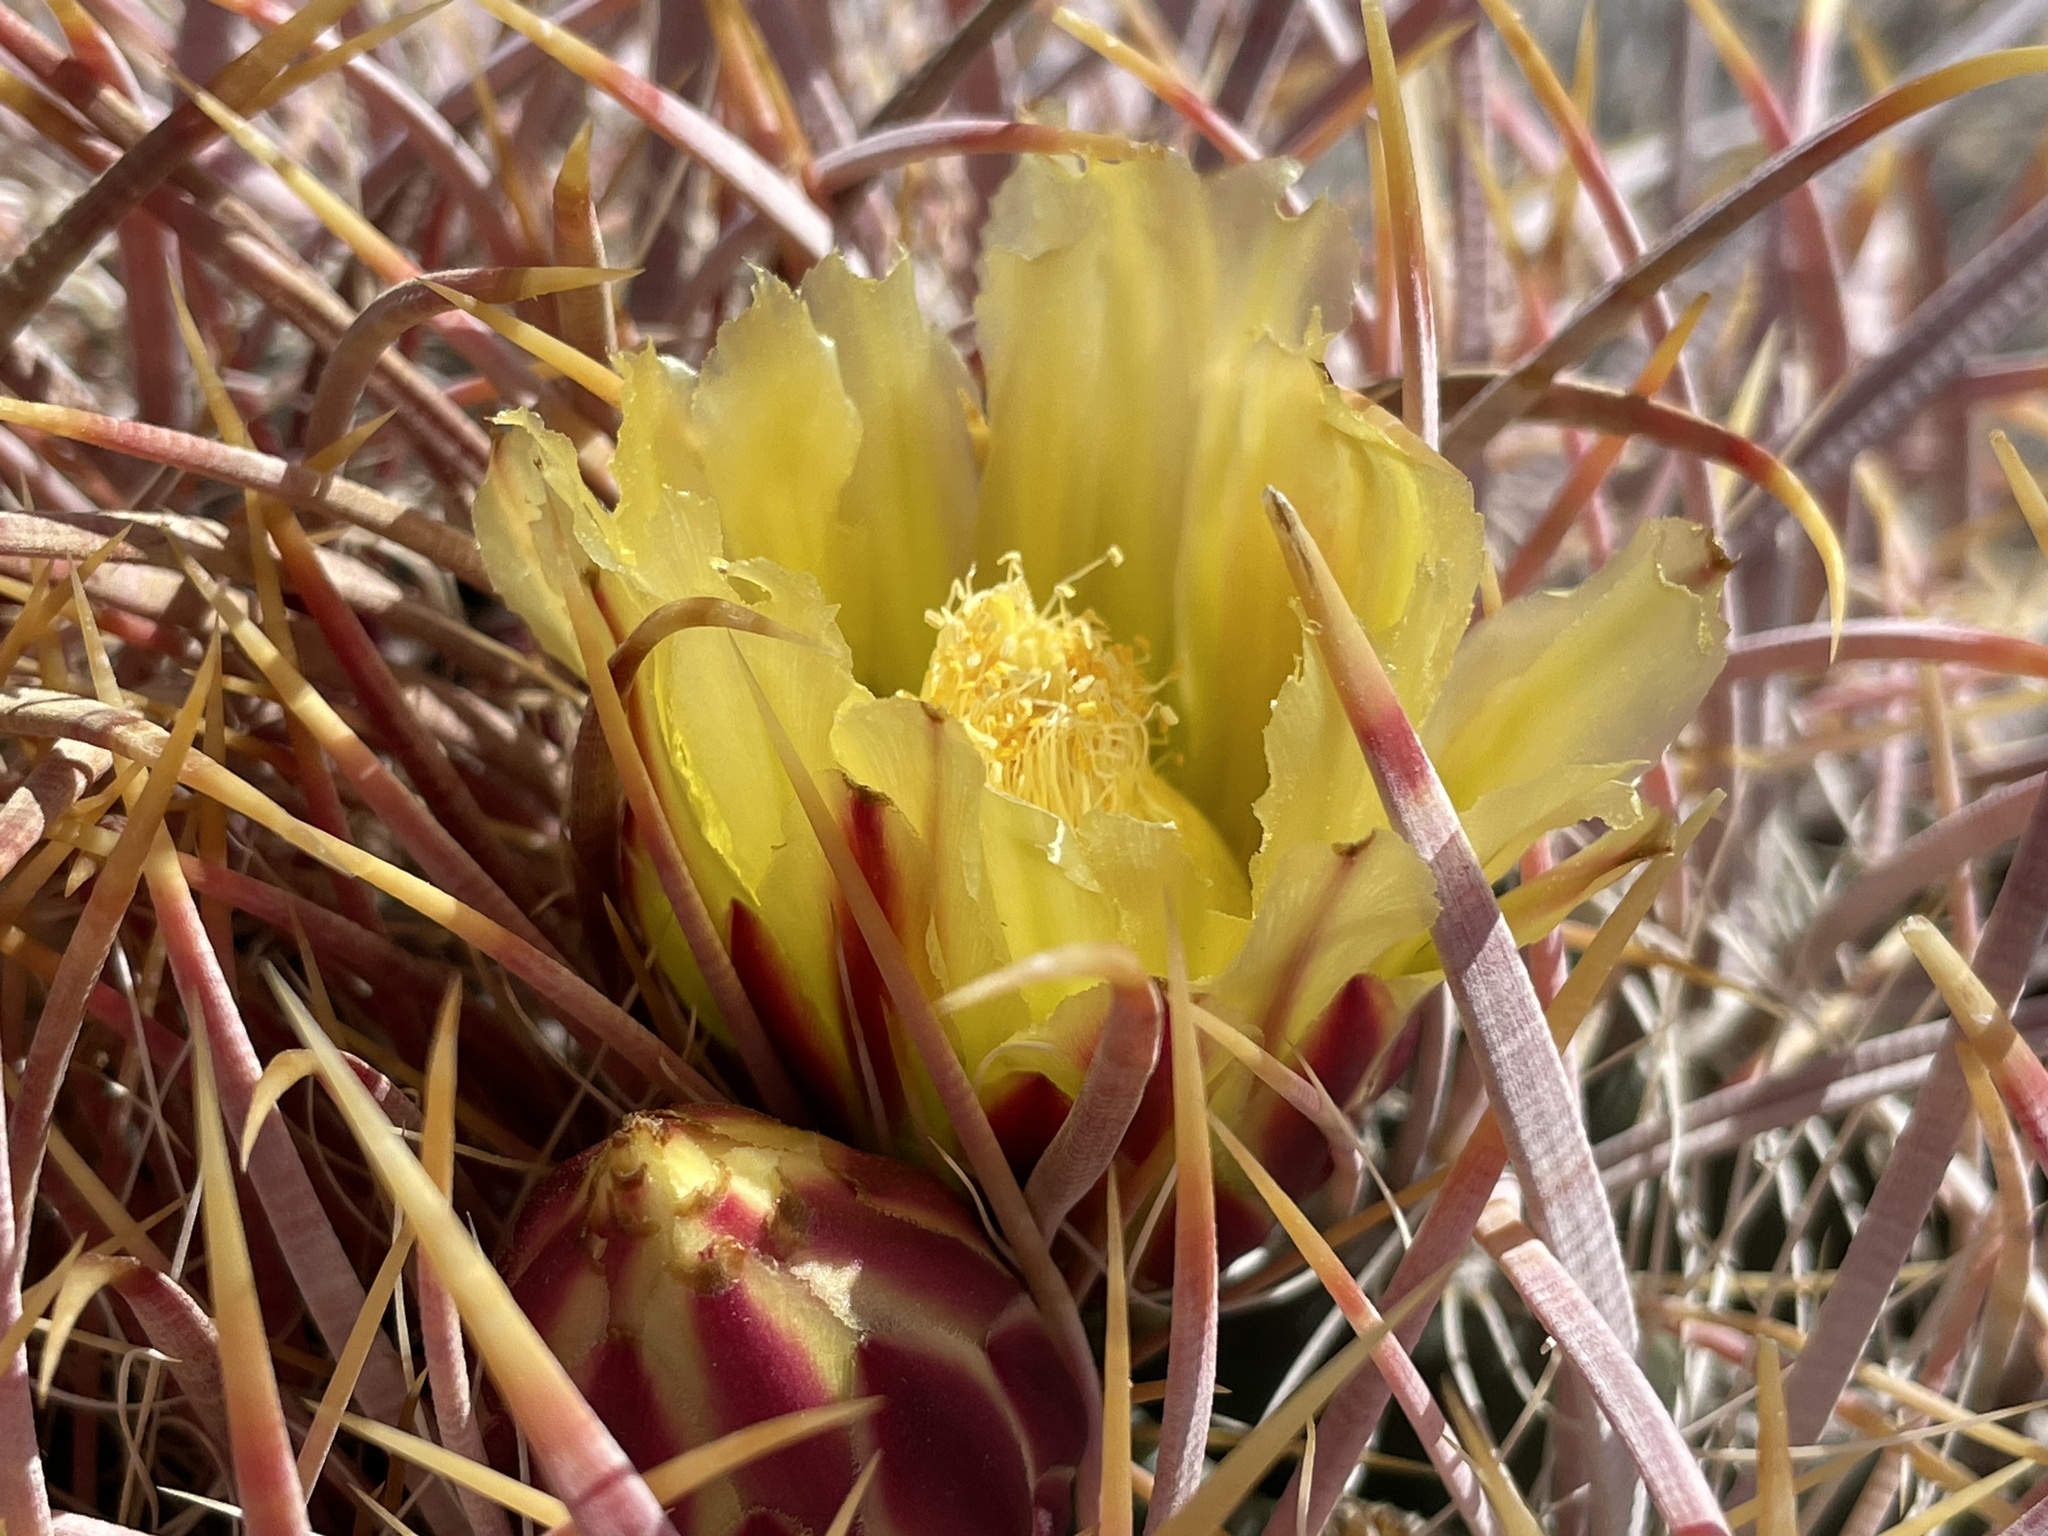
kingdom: Plantae
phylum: Tracheophyta
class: Magnoliopsida
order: Caryophyllales
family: Cactaceae
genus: Ferocactus
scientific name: Ferocactus cylindraceus
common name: California barrel cactus
